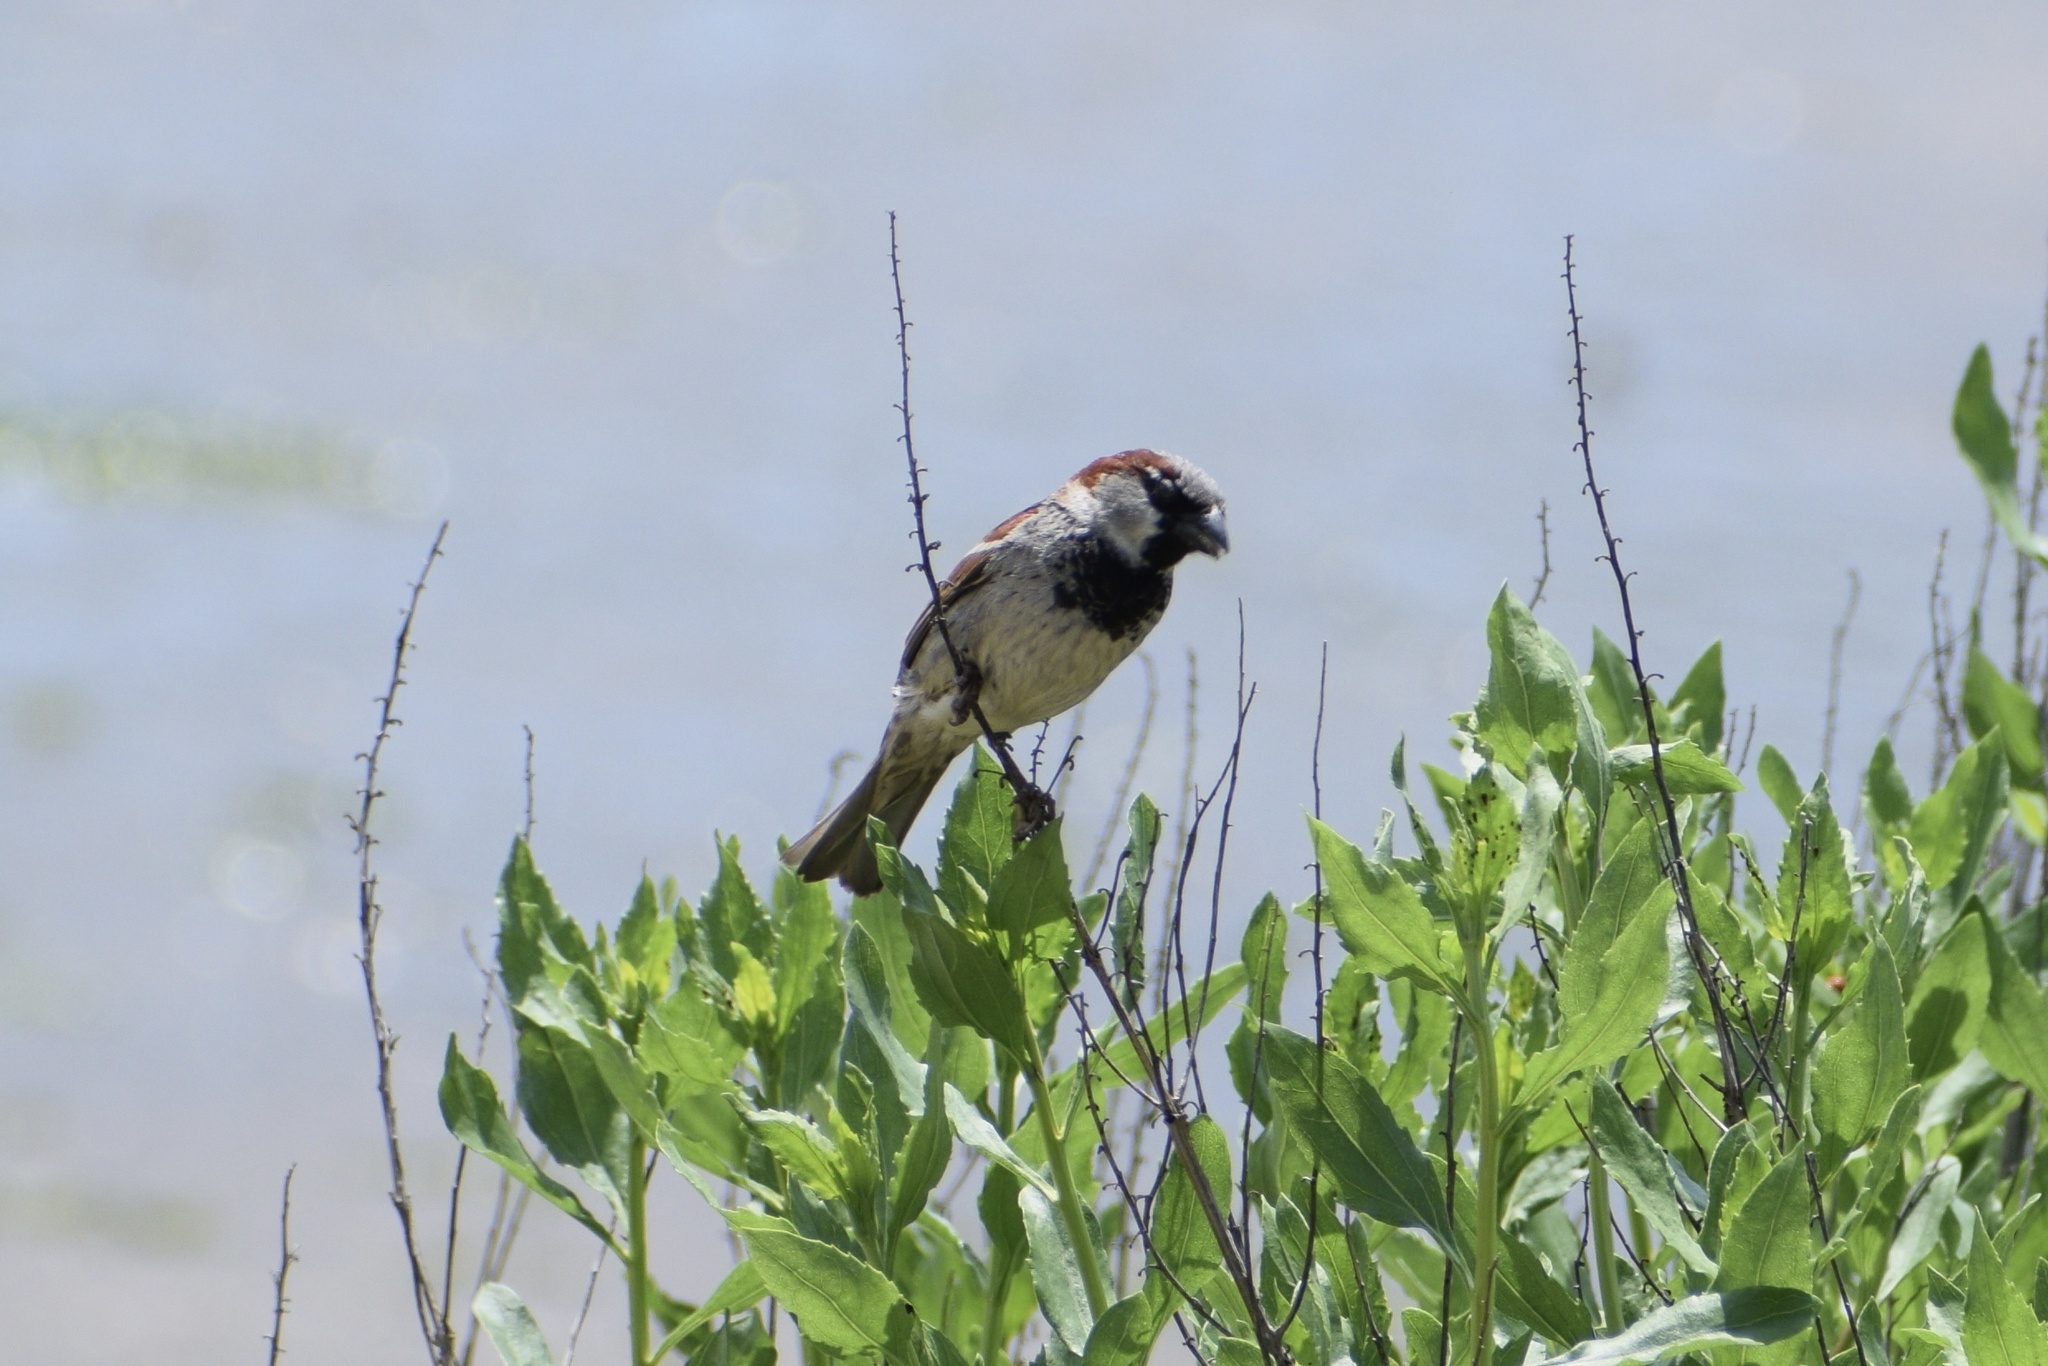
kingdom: Animalia
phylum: Chordata
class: Aves
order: Passeriformes
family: Passeridae
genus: Passer
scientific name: Passer domesticus
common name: House sparrow
